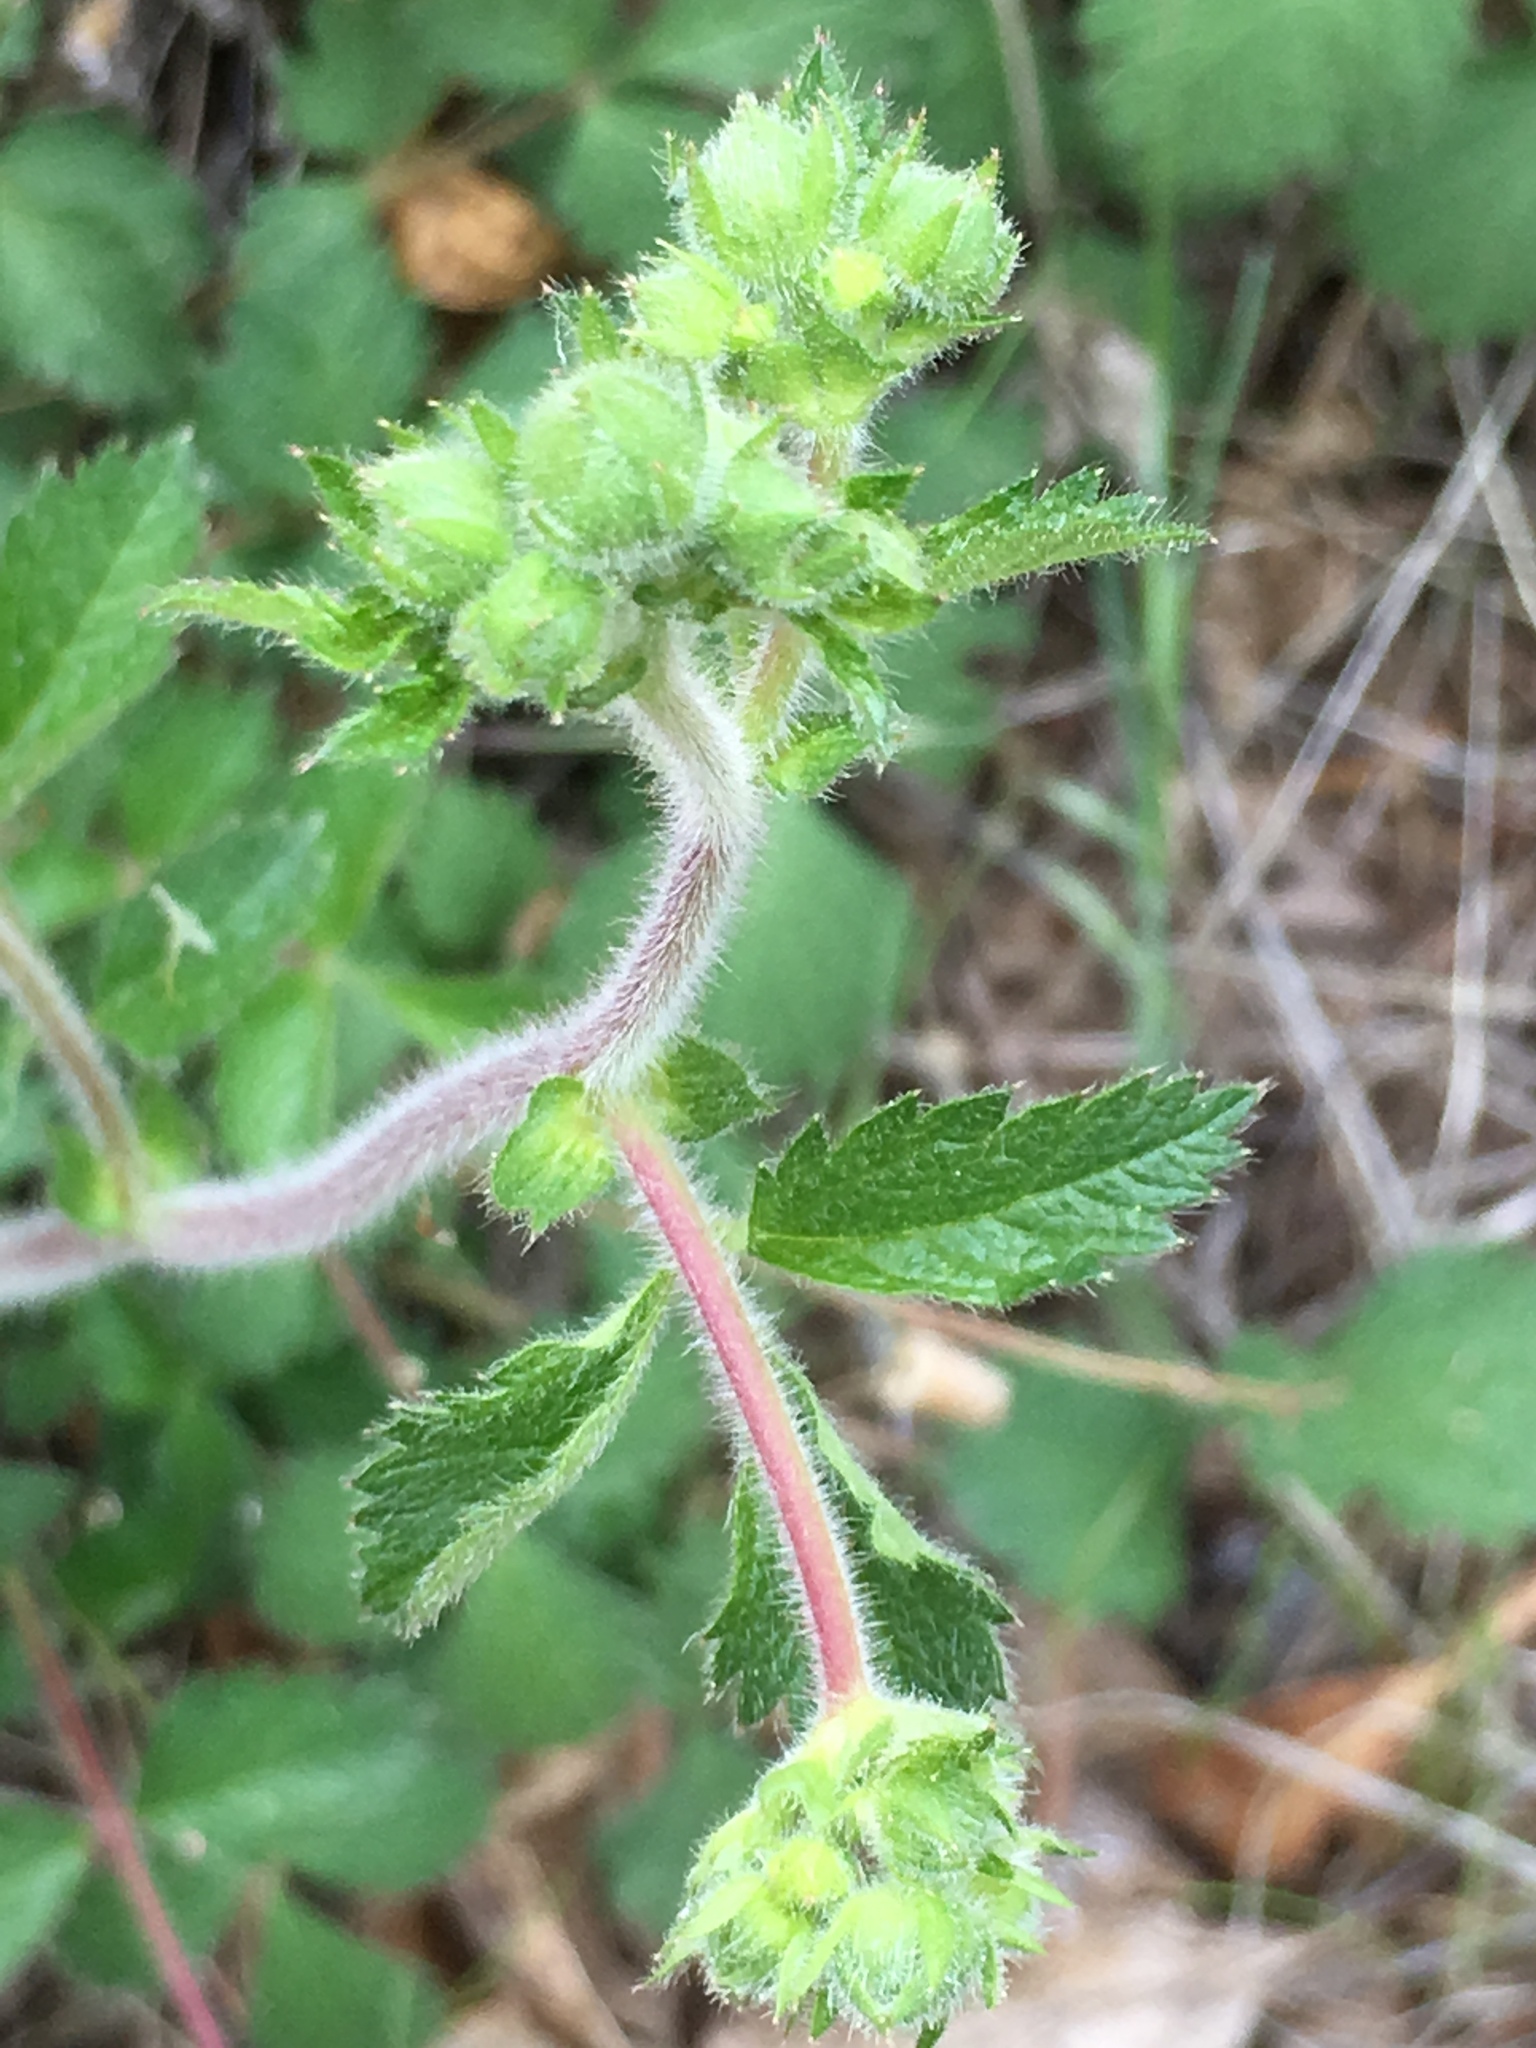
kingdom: Plantae
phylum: Tracheophyta
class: Magnoliopsida
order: Rosales
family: Rosaceae
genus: Drymocallis
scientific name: Drymocallis glandulosa
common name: Sticky cinquefoil
